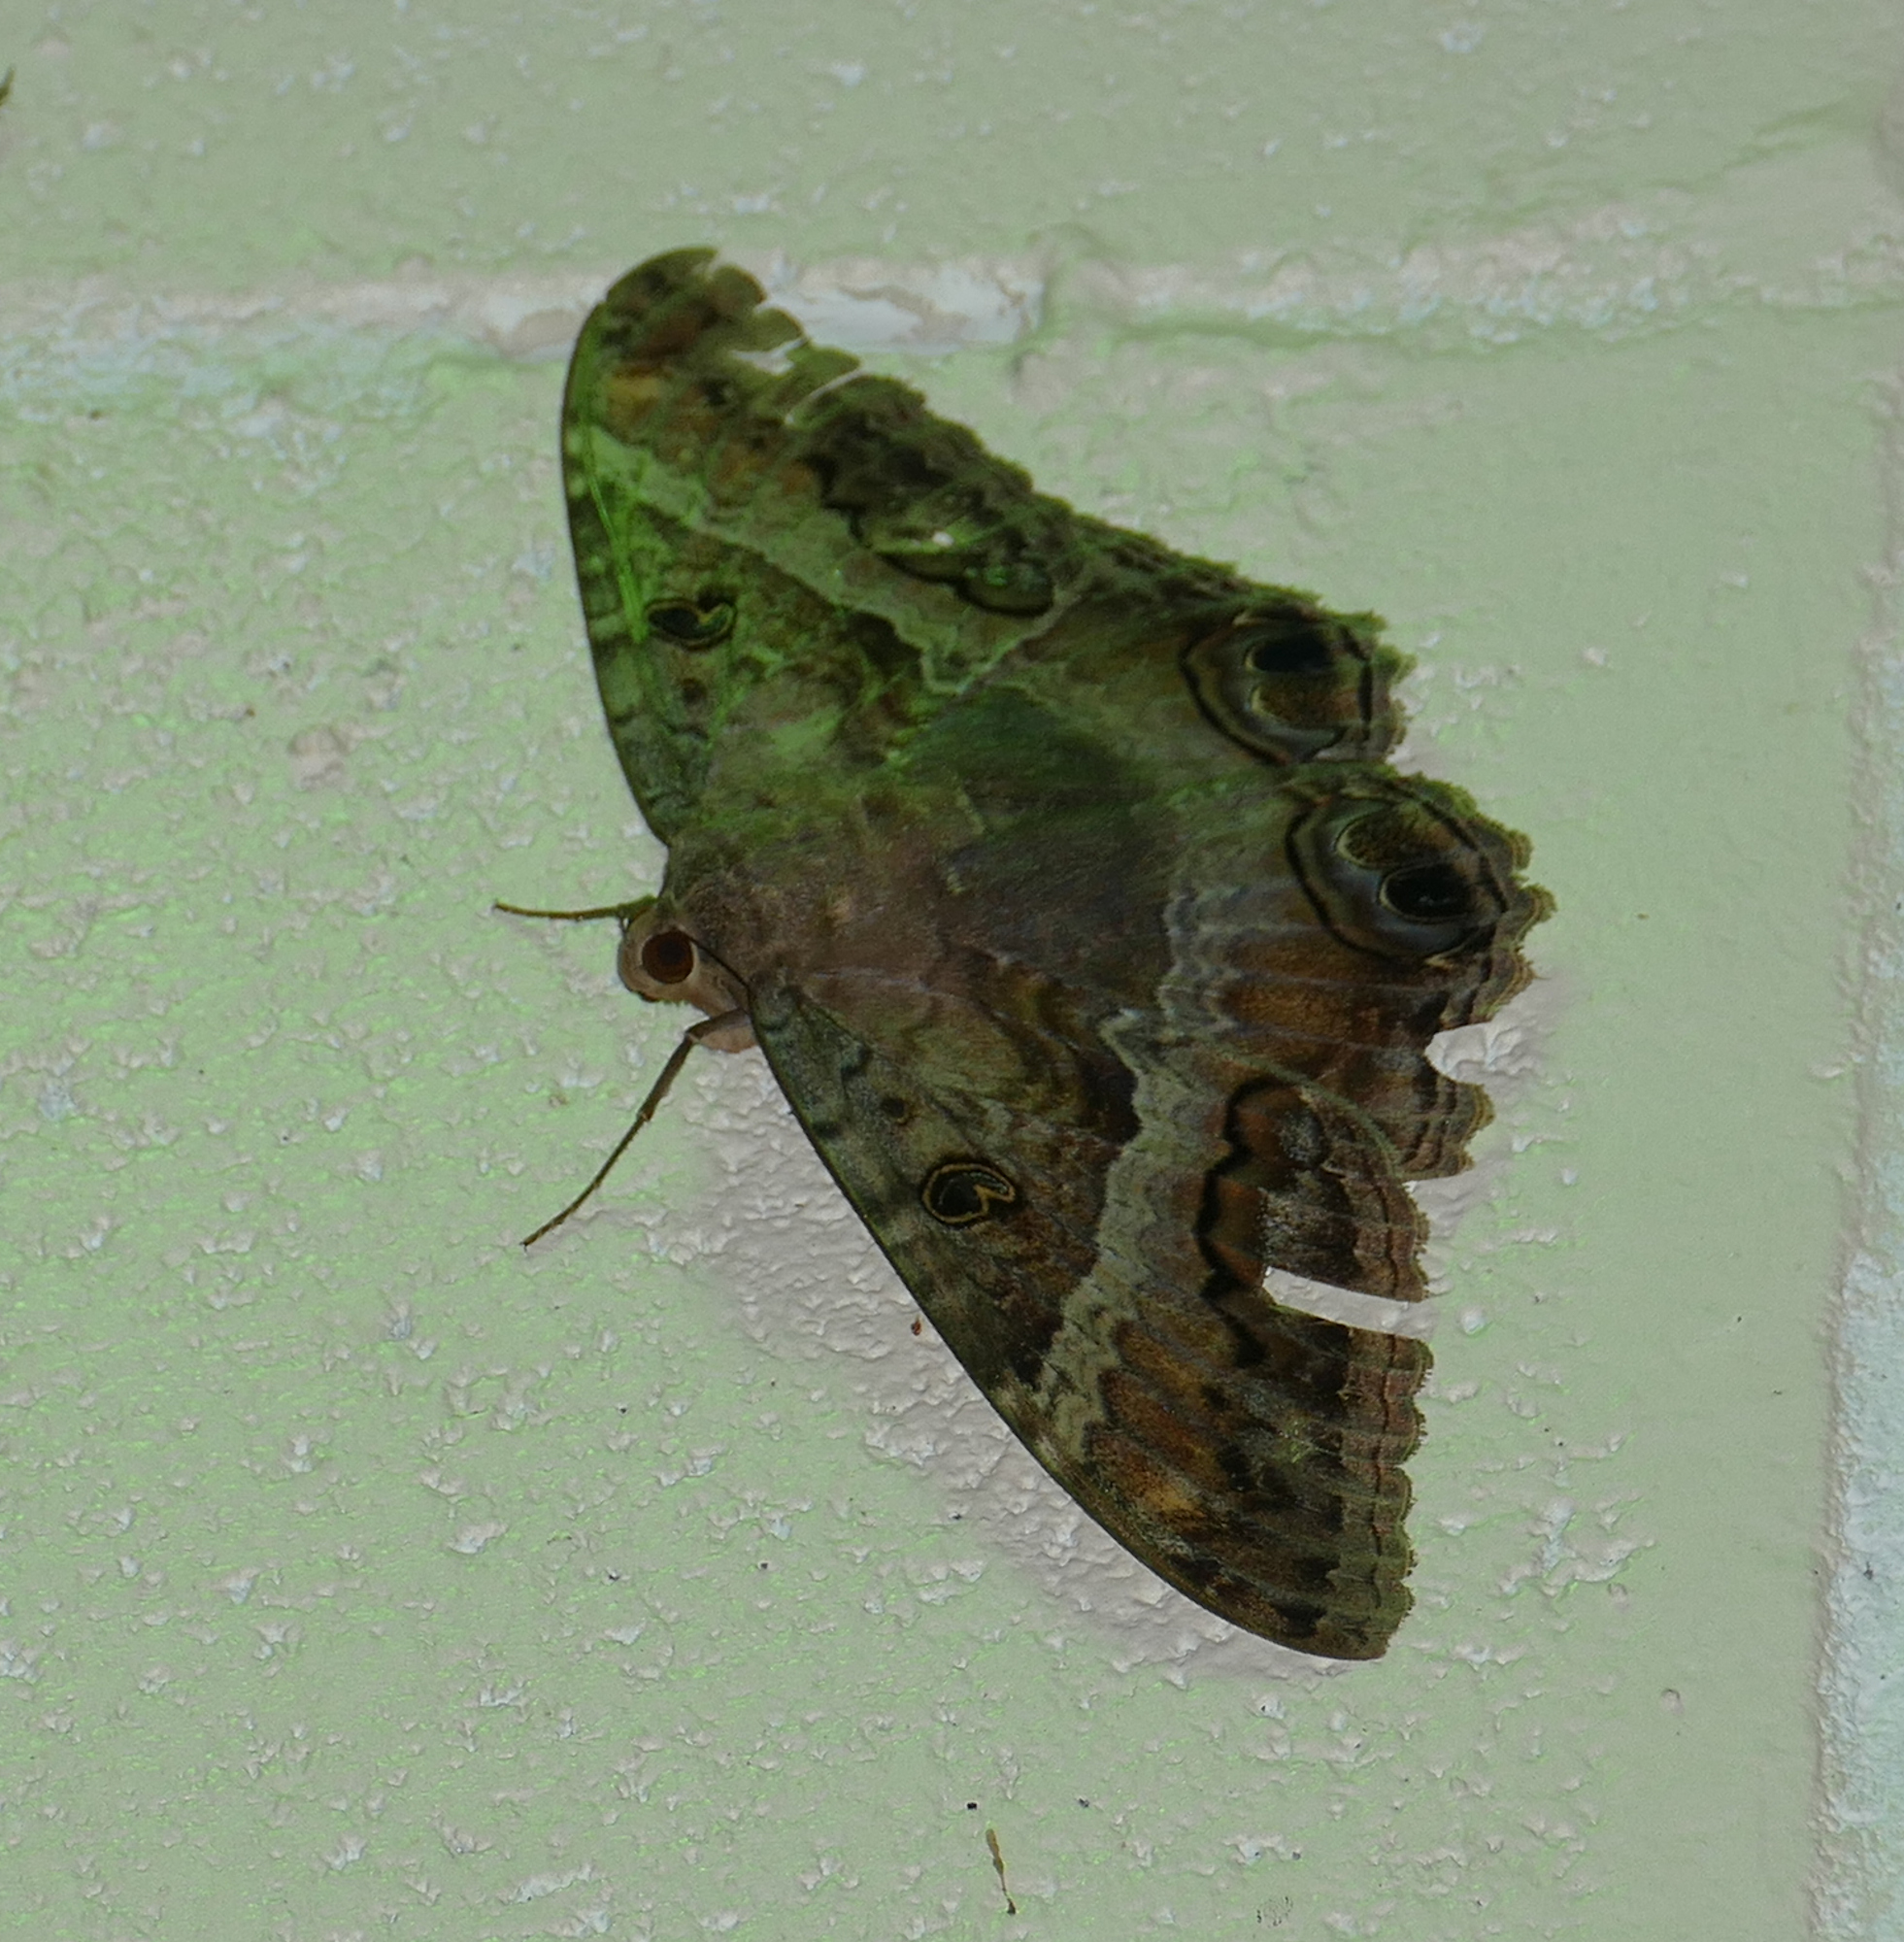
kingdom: Animalia
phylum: Arthropoda
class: Insecta
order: Lepidoptera
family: Erebidae
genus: Ascalapha
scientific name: Ascalapha odorata
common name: Black witch
